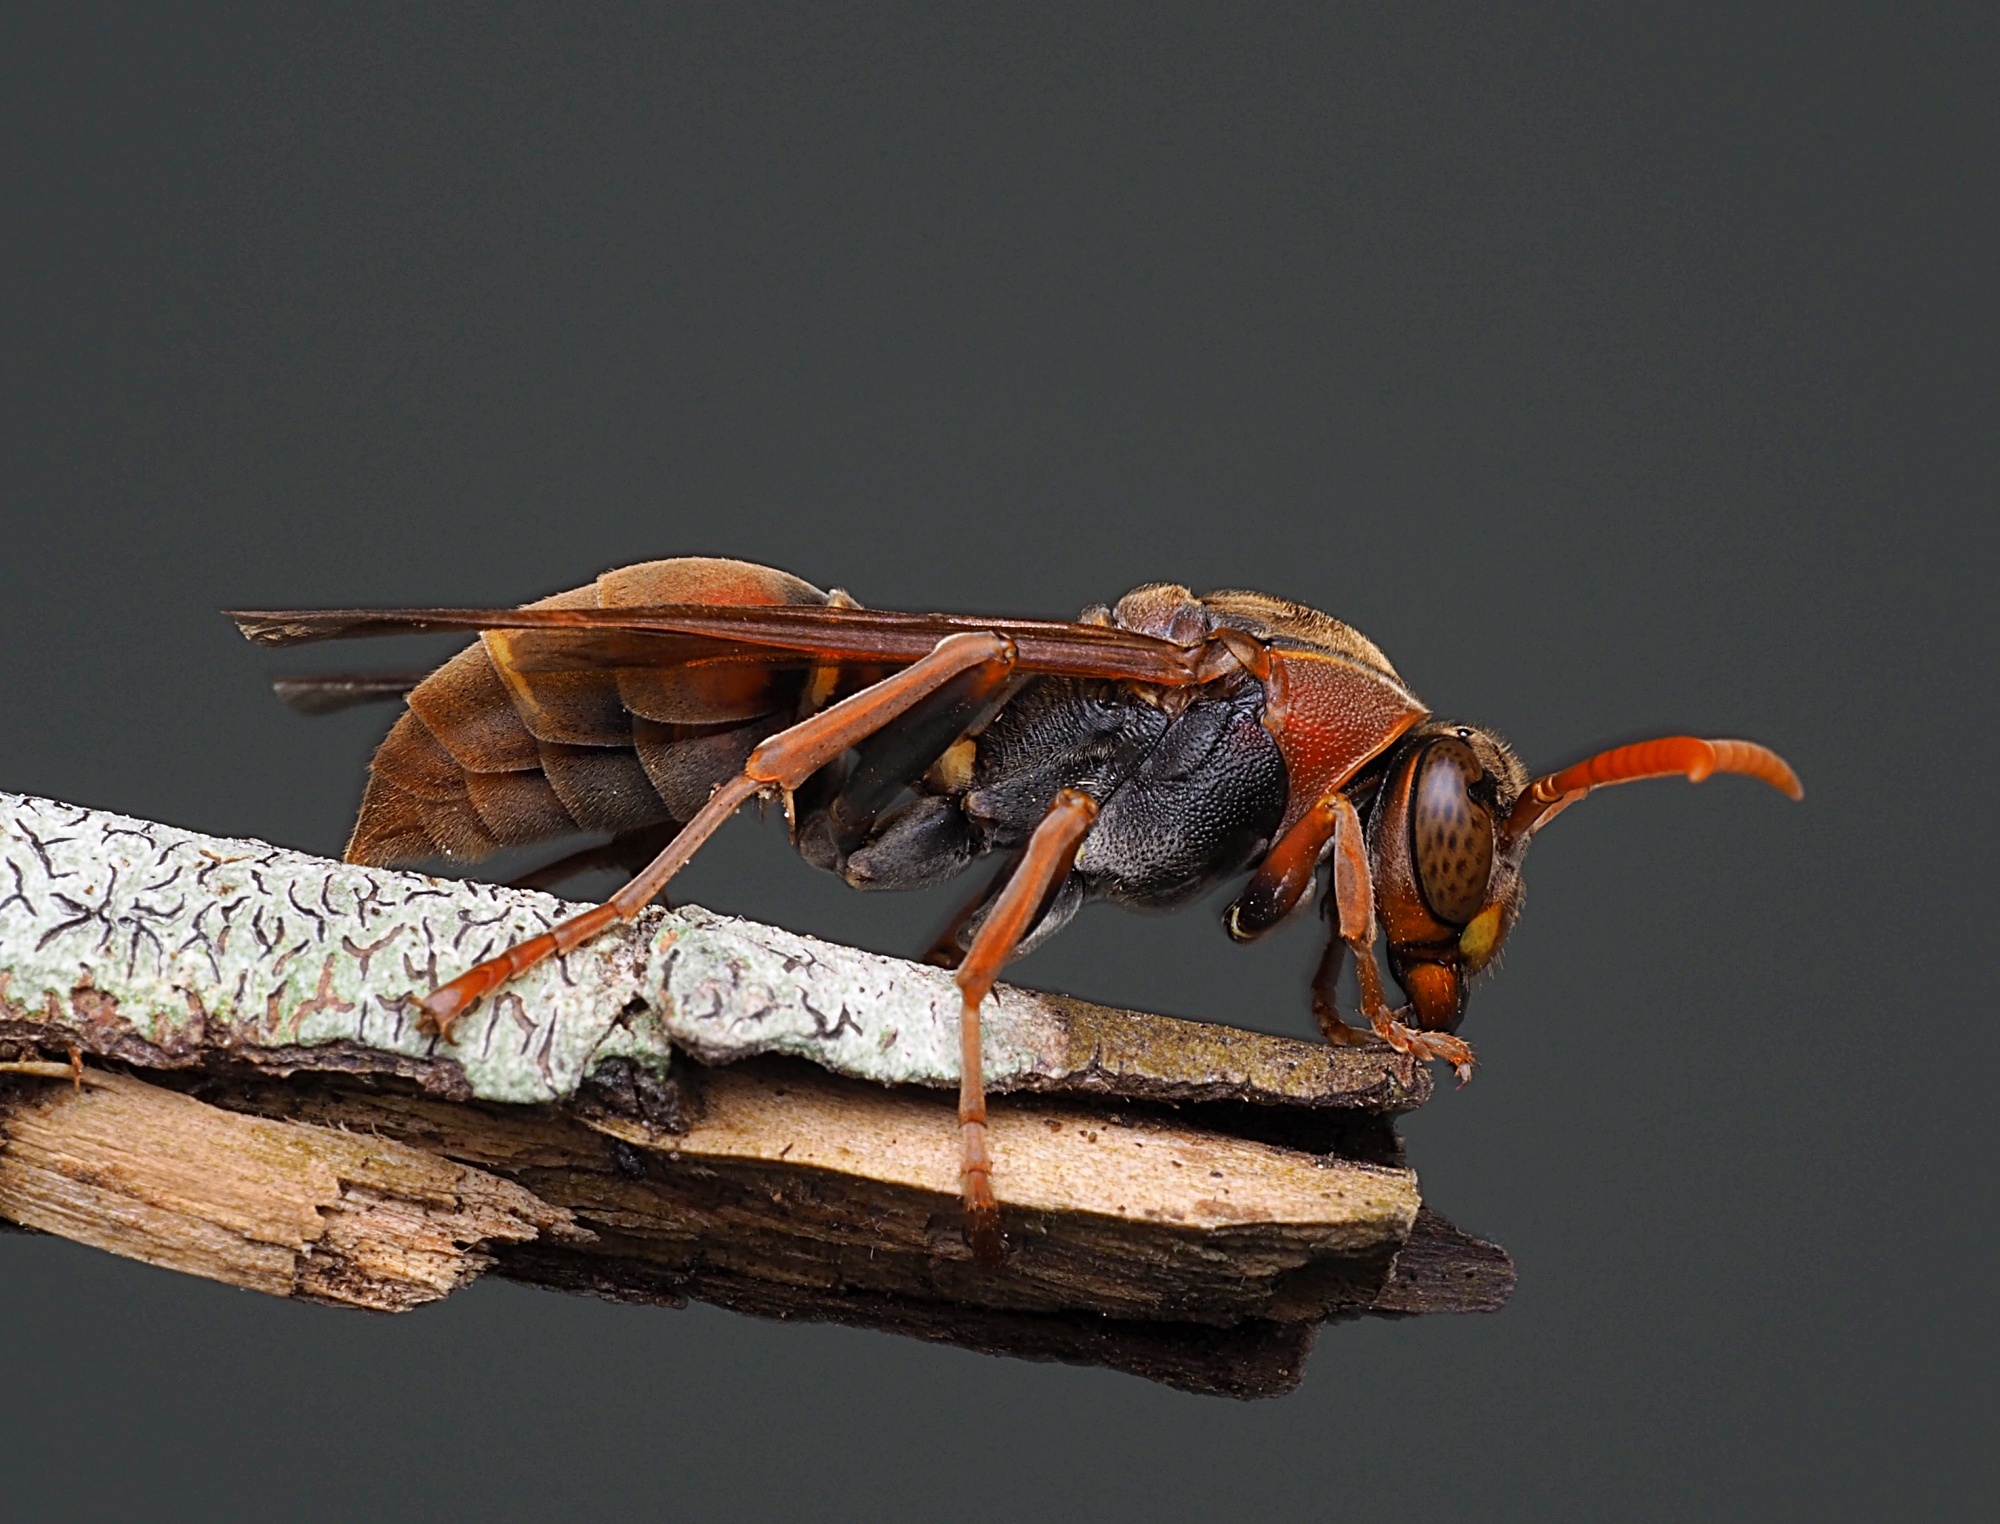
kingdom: Animalia
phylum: Arthropoda
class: Insecta
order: Hymenoptera
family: Eumenidae
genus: Polistes
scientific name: Polistes humilis
